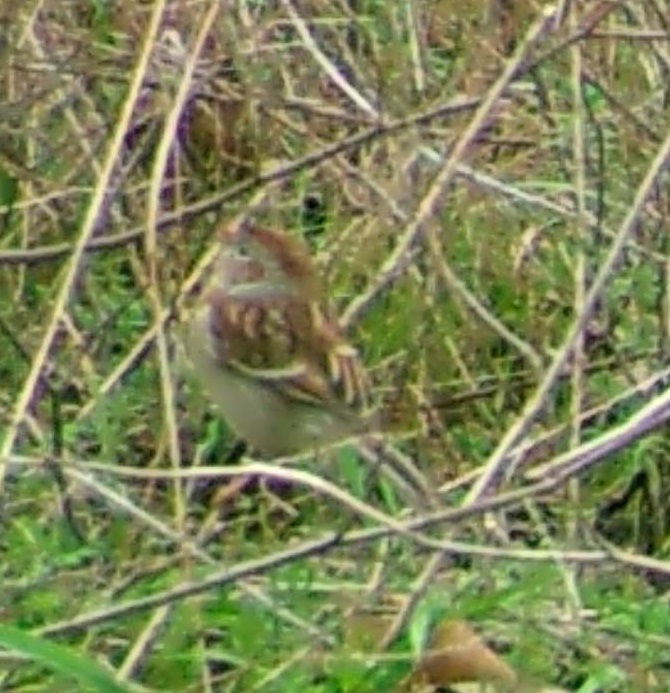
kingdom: Animalia
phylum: Chordata
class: Aves
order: Passeriformes
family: Passerellidae
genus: Spizella
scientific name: Spizella pusilla
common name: Field sparrow
